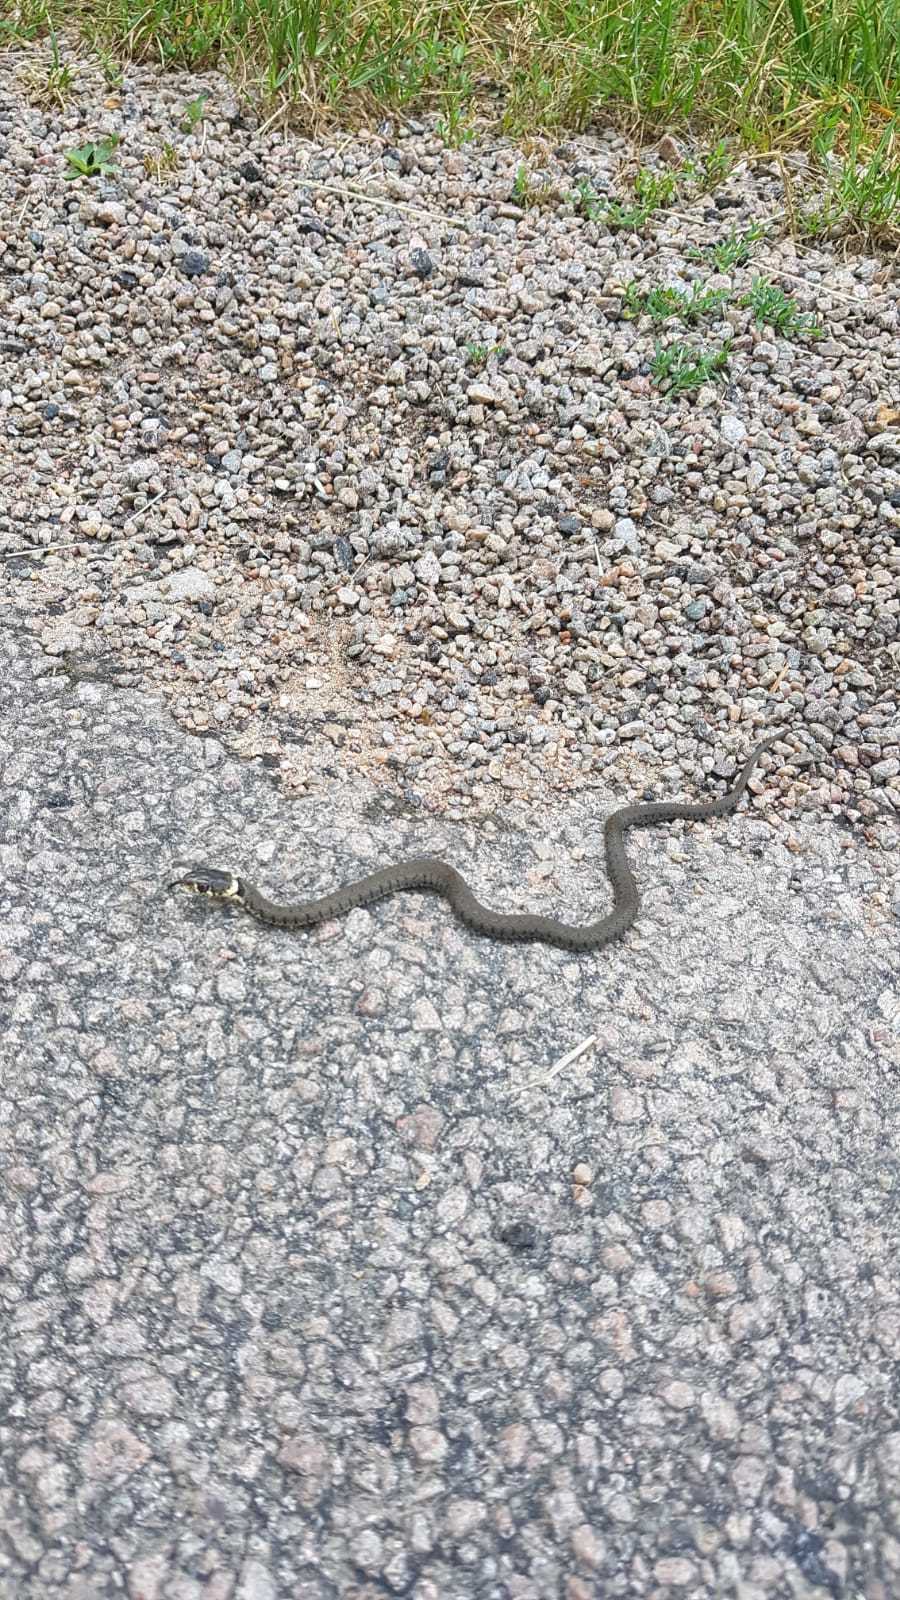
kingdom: Animalia
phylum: Chordata
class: Squamata
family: Colubridae
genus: Natrix
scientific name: Natrix helvetica
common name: Banded grass snake
